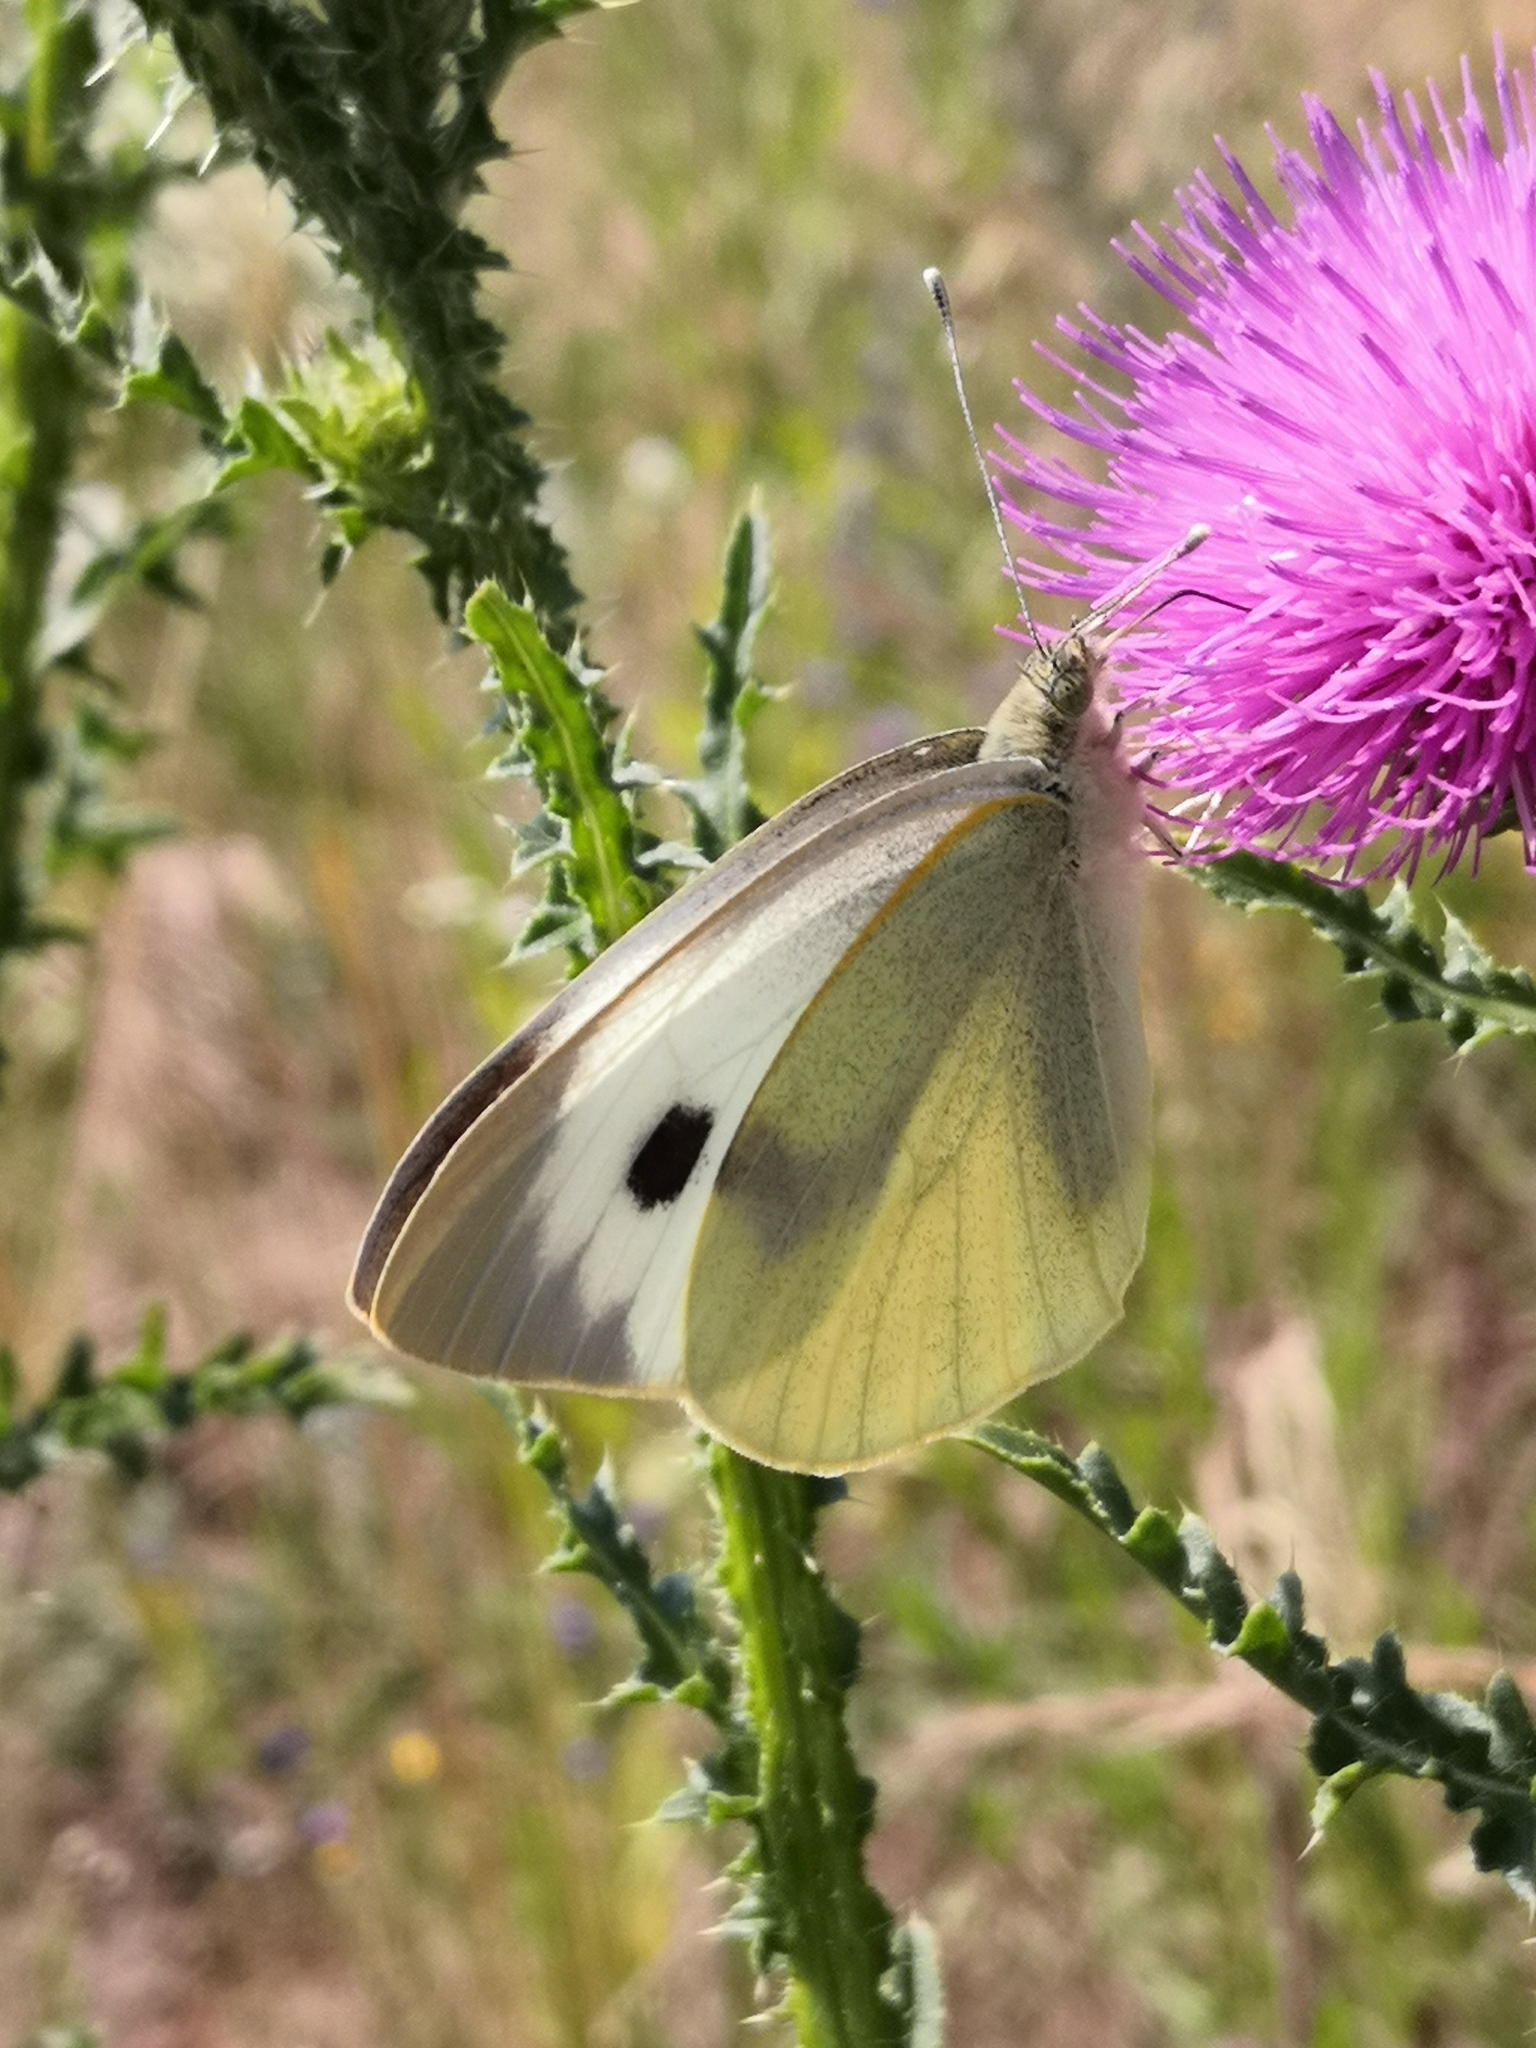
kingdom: Animalia
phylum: Arthropoda
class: Insecta
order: Lepidoptera
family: Pieridae
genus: Pieris
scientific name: Pieris brassicae
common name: Large white
